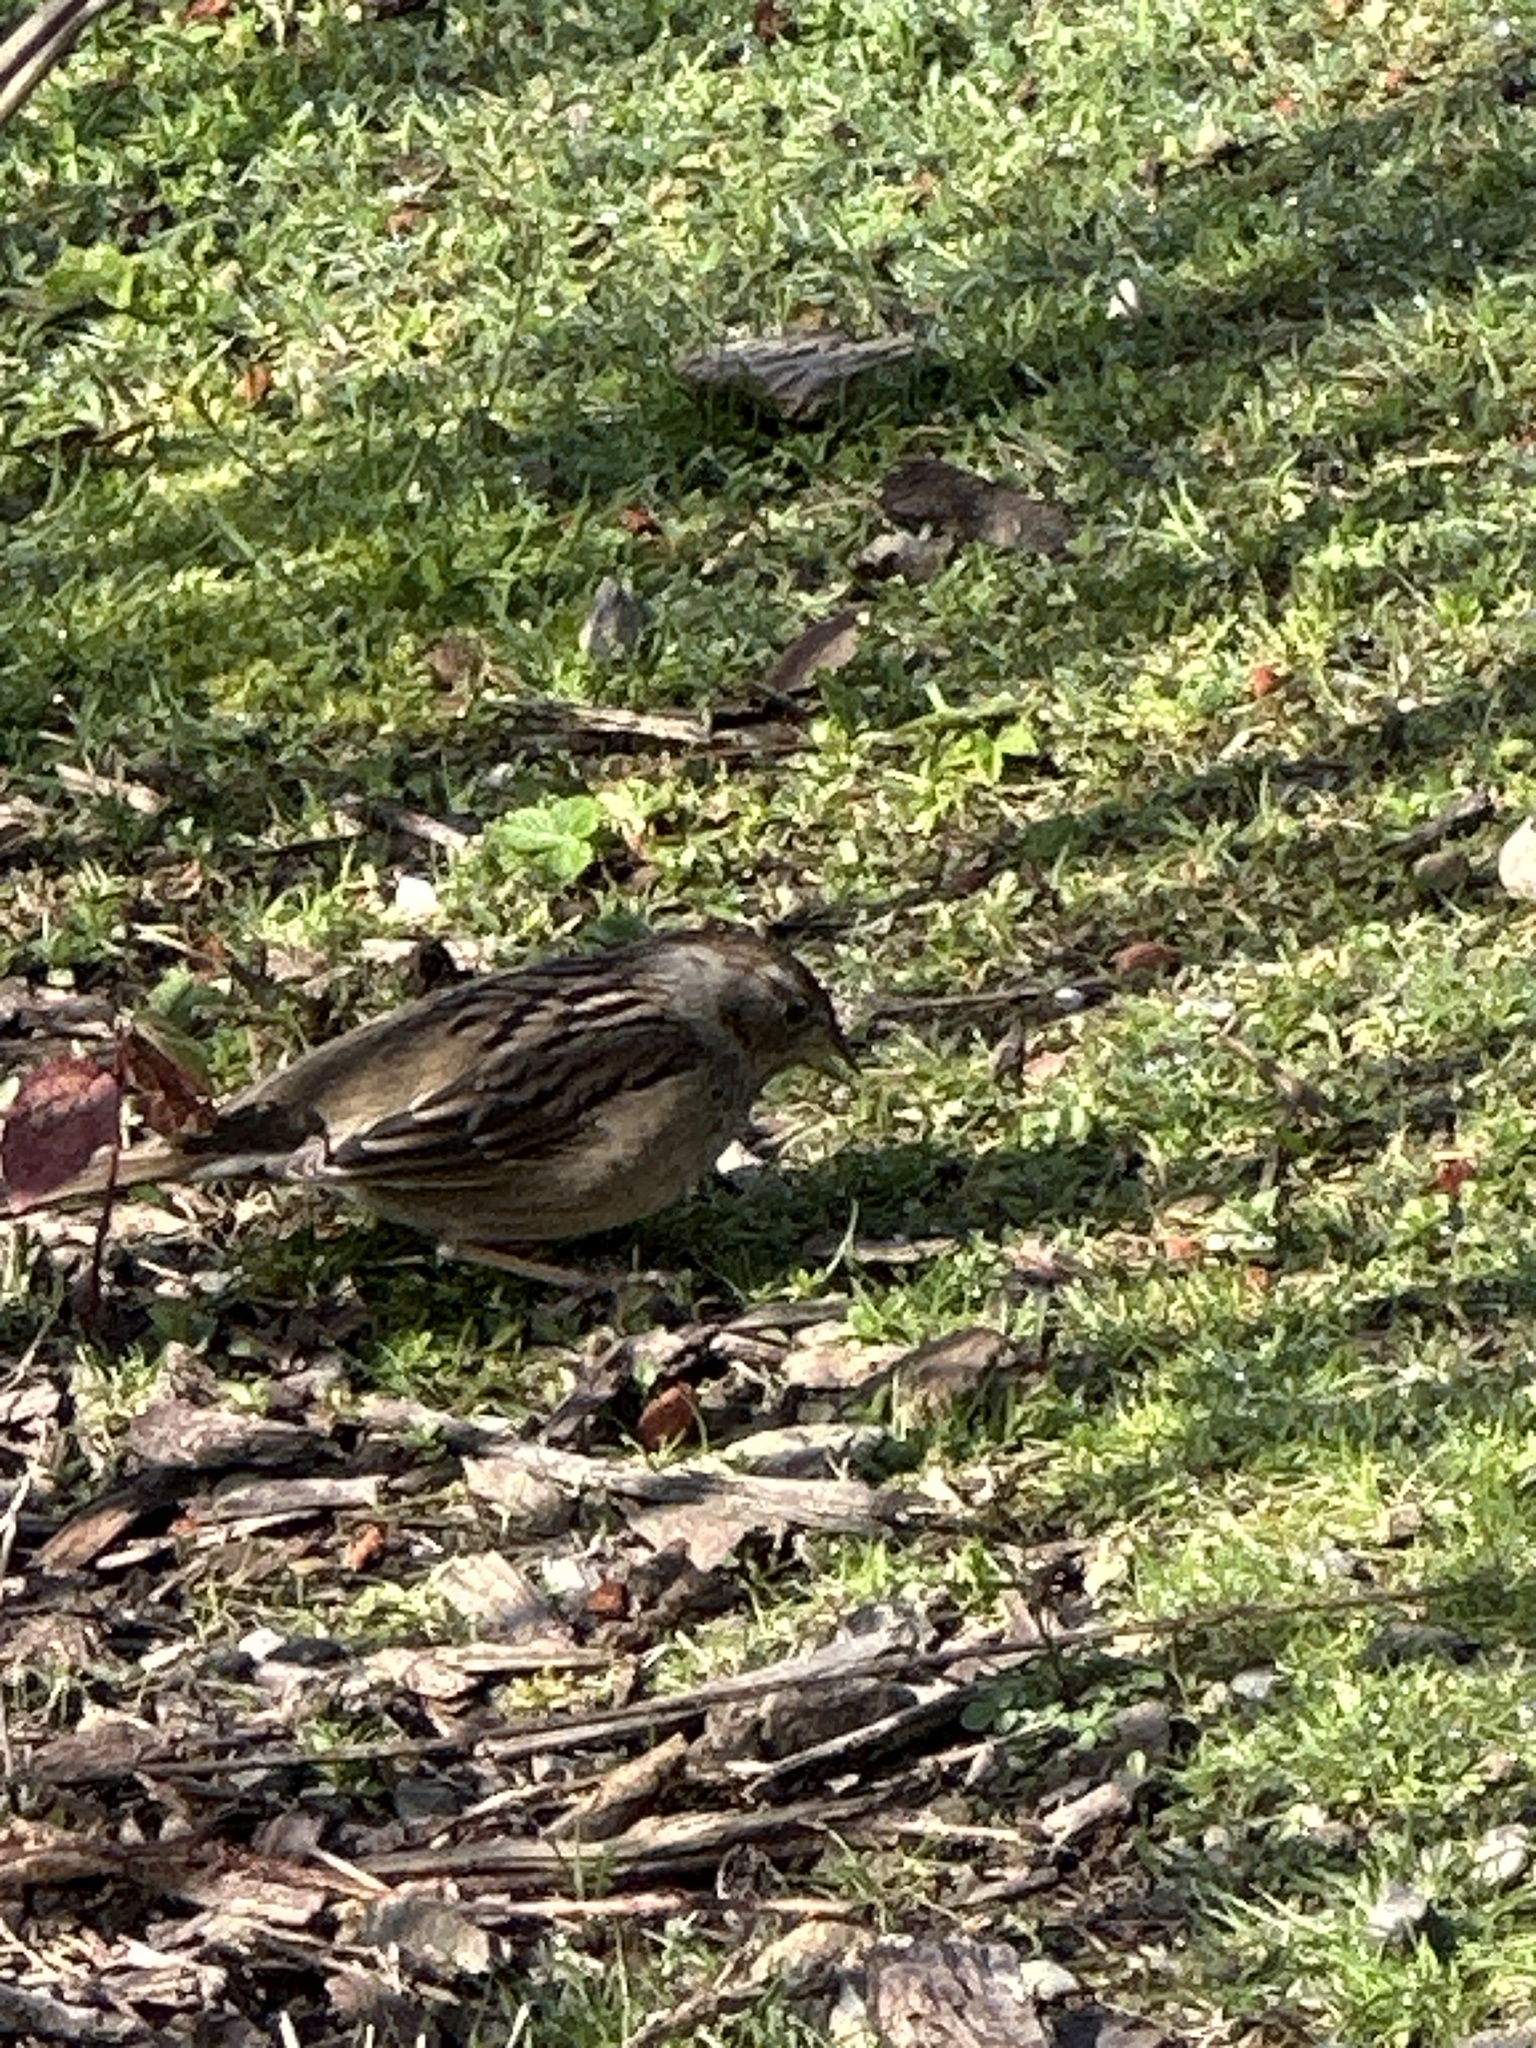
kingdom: Animalia
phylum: Chordata
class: Aves
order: Passeriformes
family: Passerellidae
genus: Zonotrichia
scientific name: Zonotrichia atricapilla
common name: Golden-crowned sparrow
